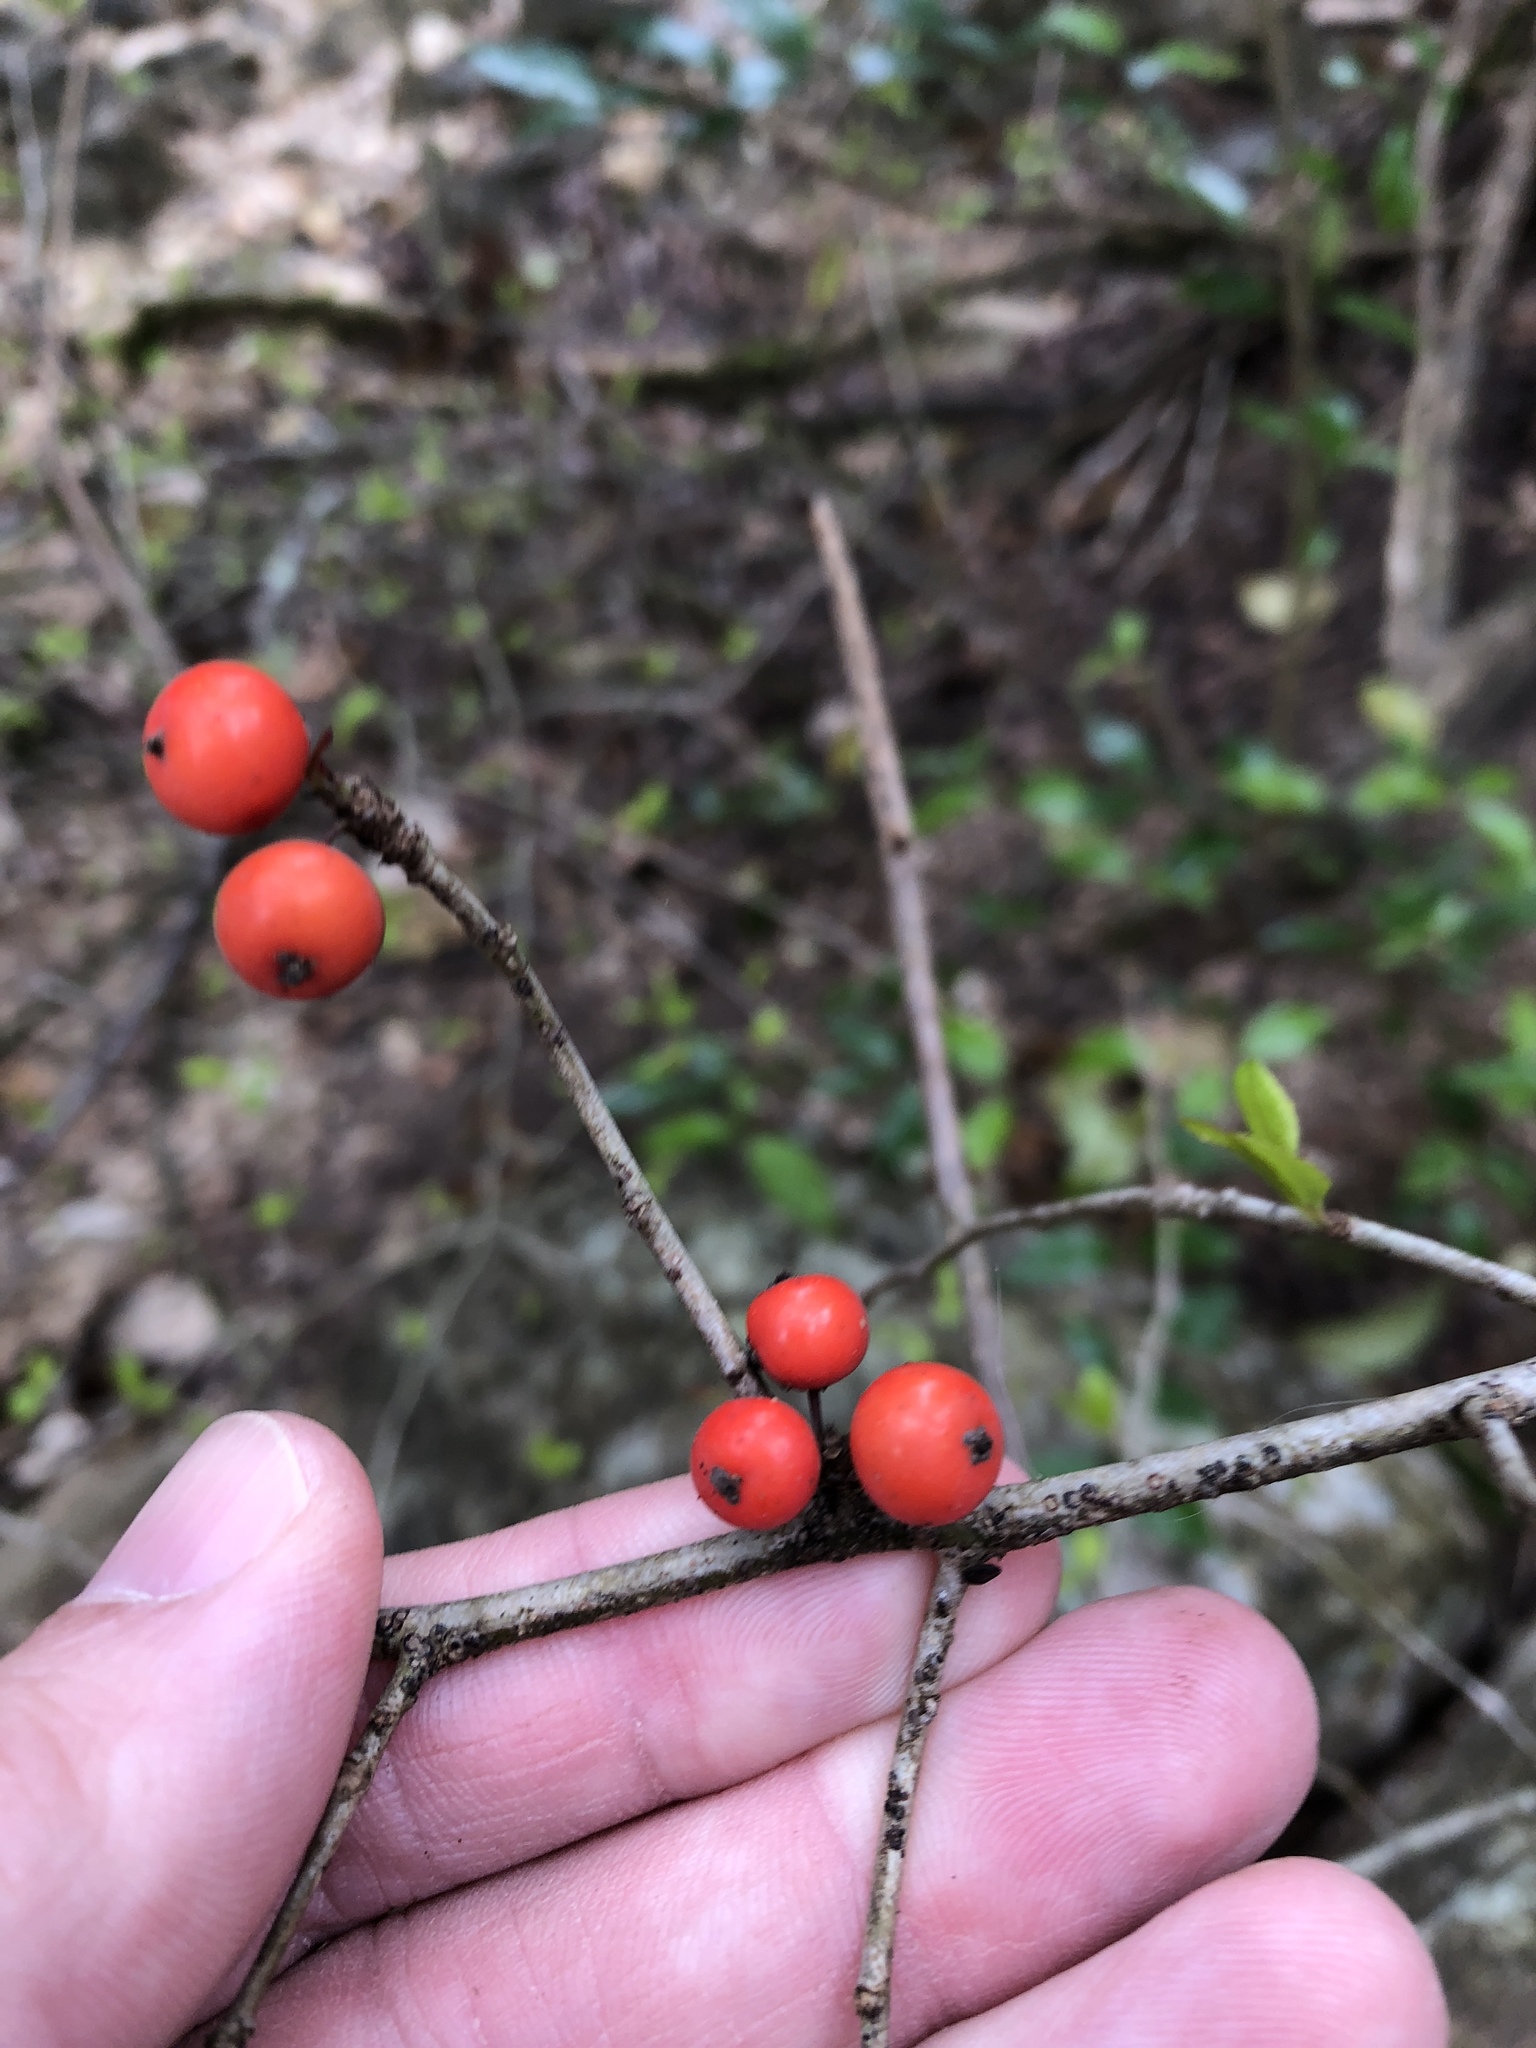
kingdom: Plantae
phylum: Tracheophyta
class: Magnoliopsida
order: Aquifoliales
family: Aquifoliaceae
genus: Ilex
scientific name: Ilex decidua
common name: Possum-haw
